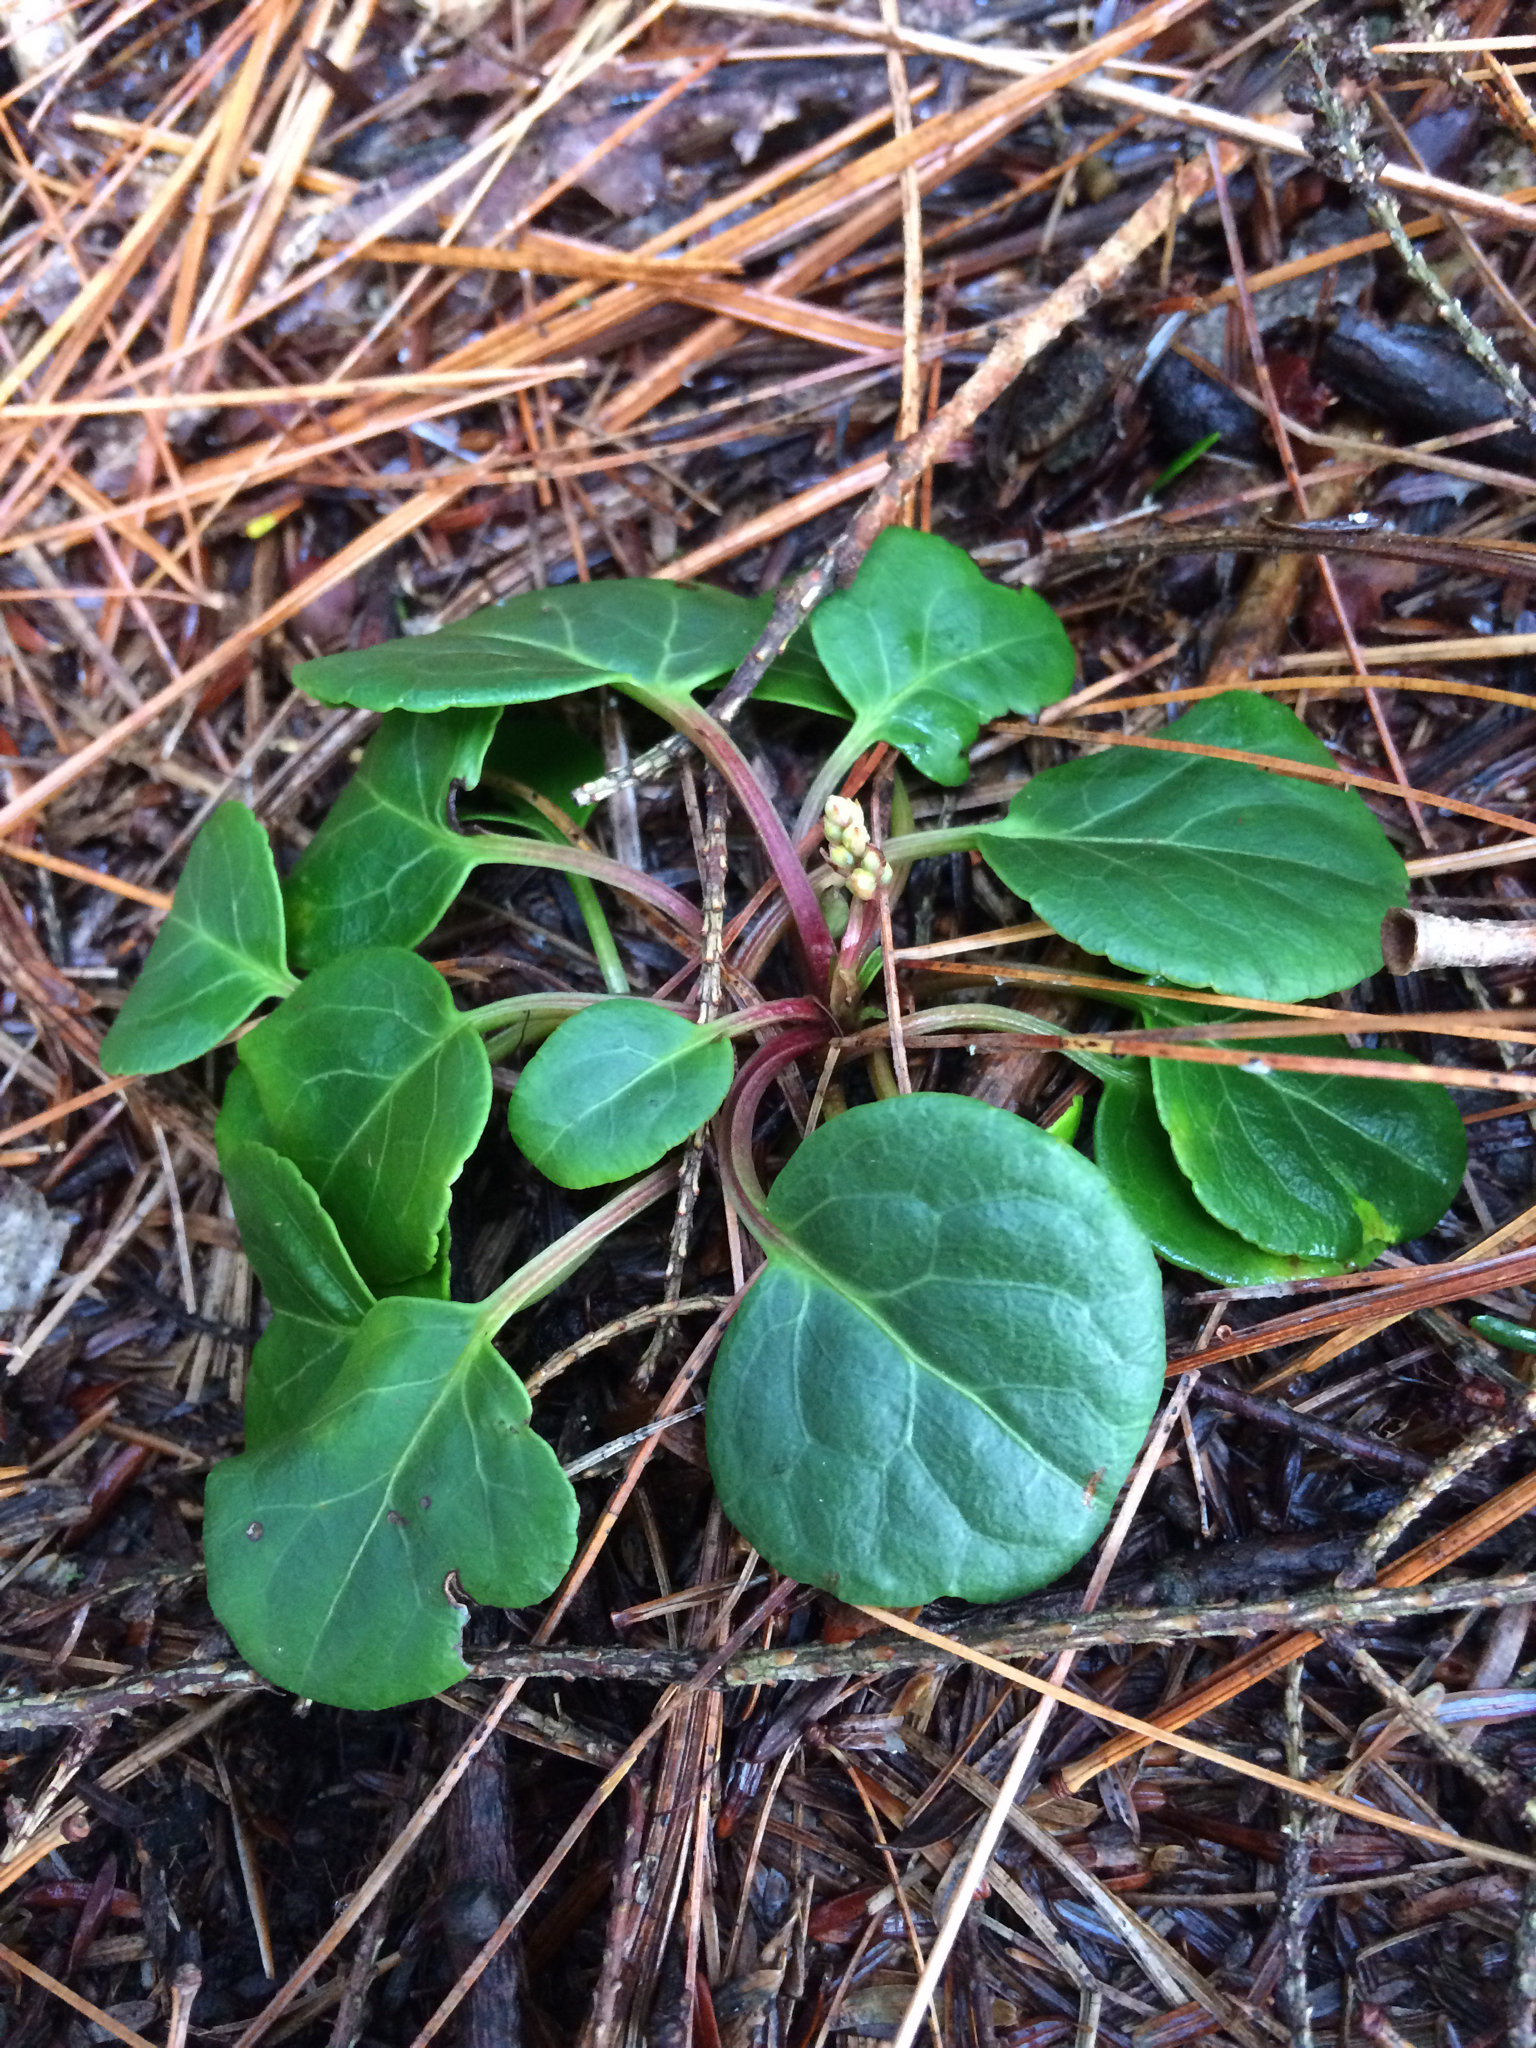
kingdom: Plantae
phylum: Tracheophyta
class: Magnoliopsida
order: Ericales
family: Ericaceae
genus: Pyrola
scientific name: Pyrola americana
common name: American wintergreen
